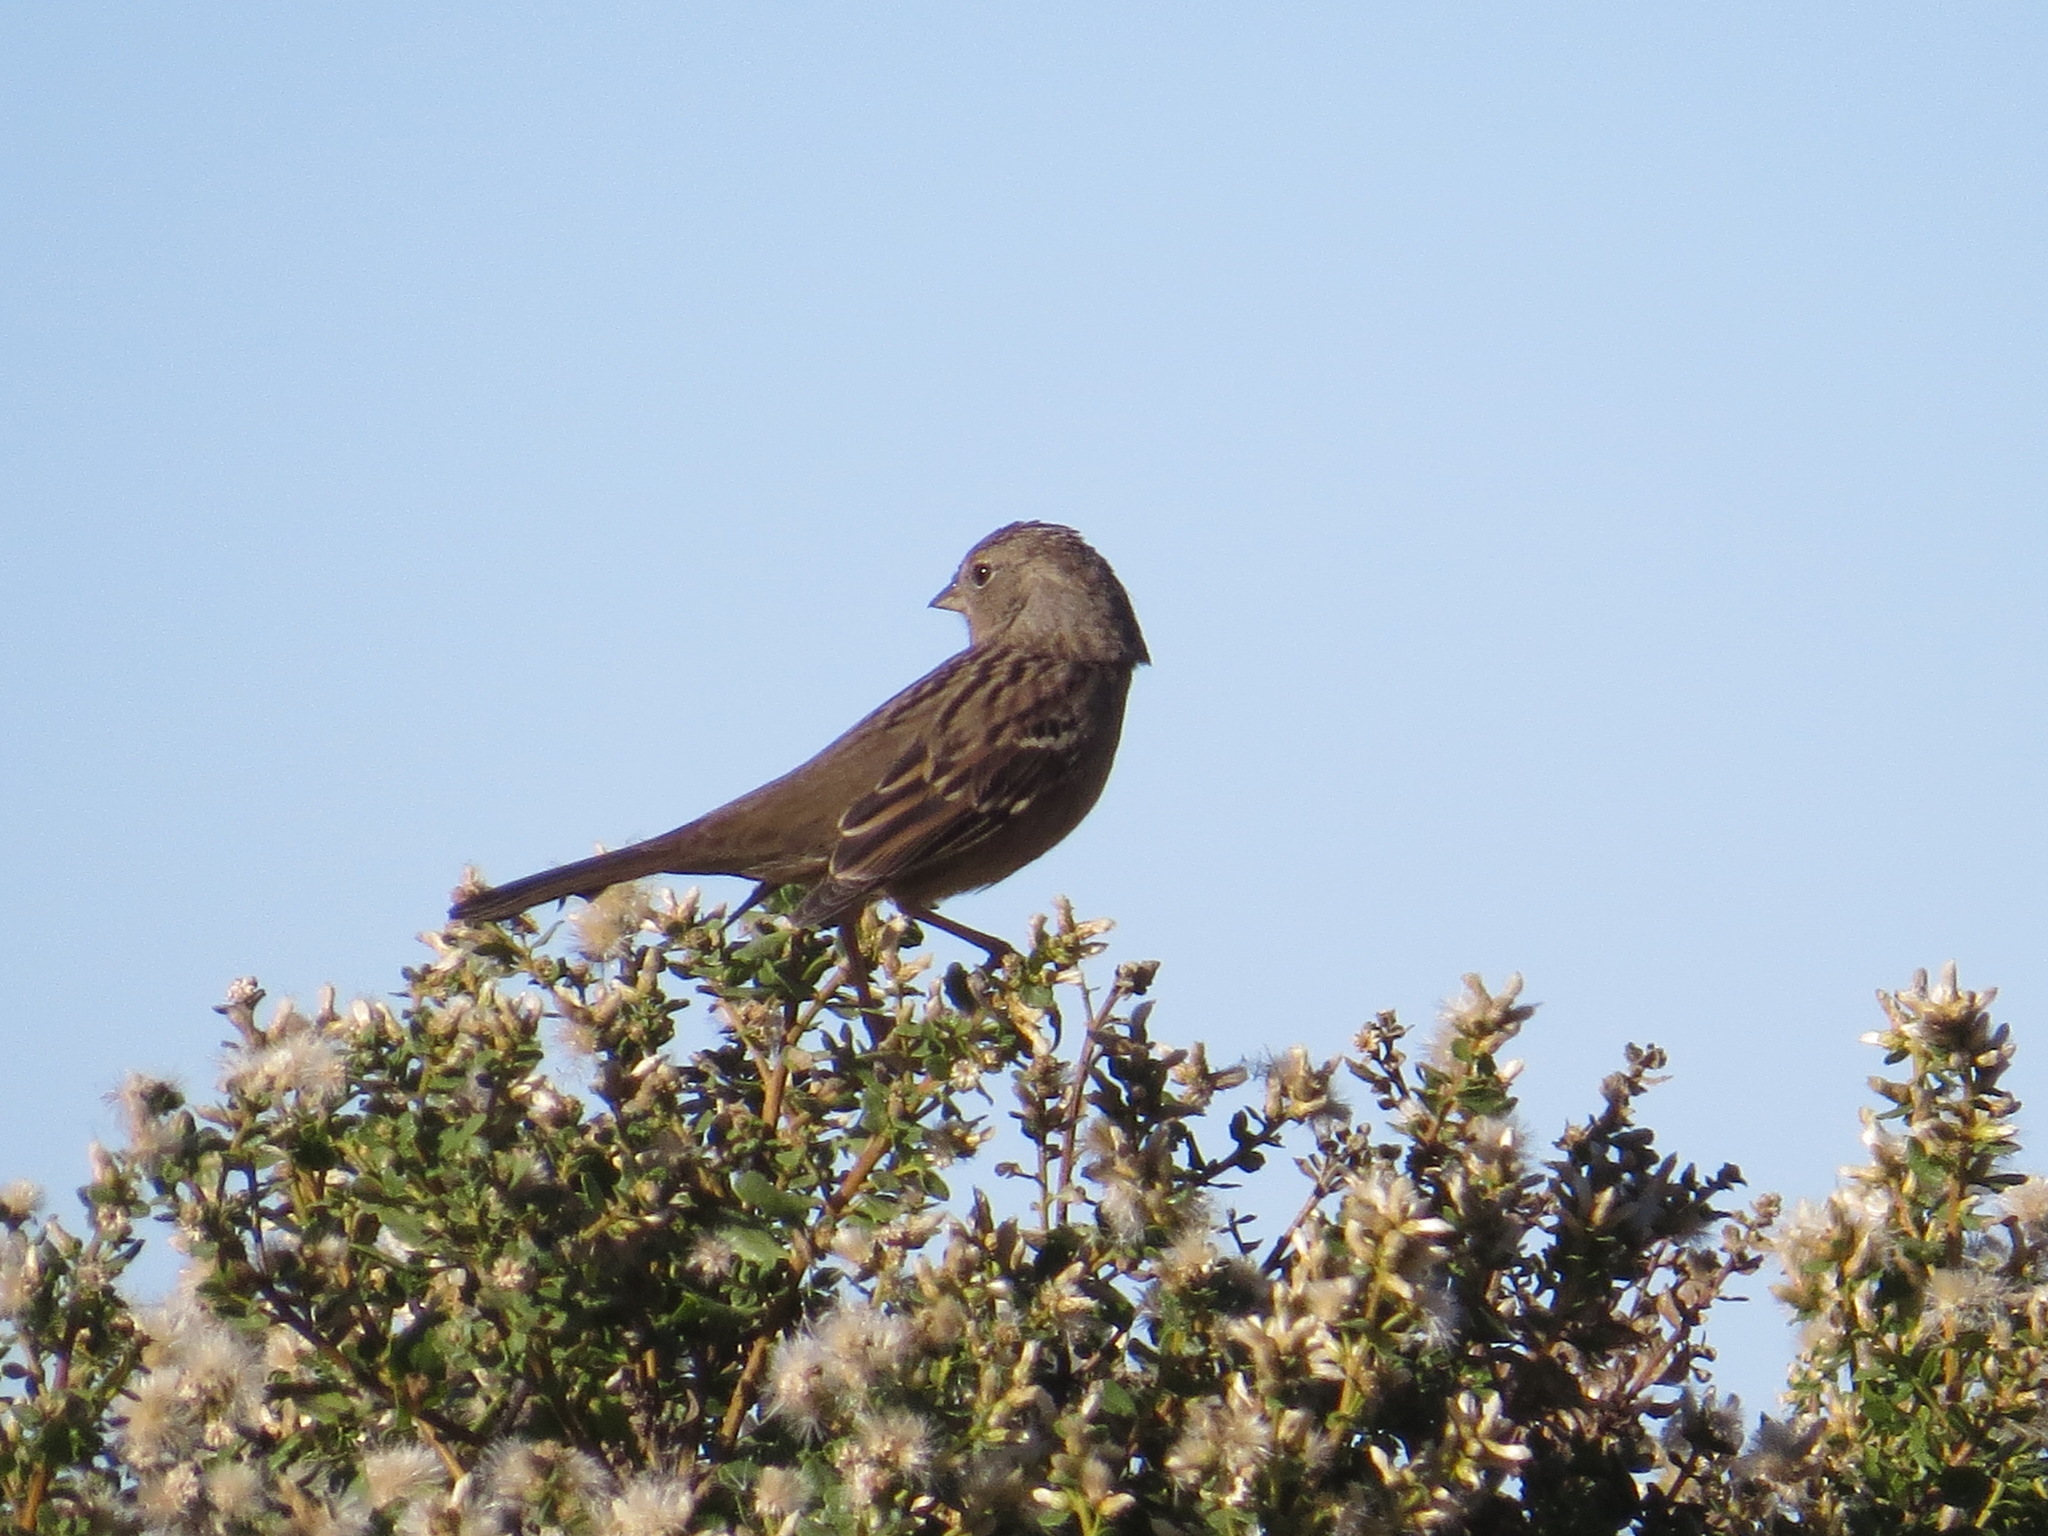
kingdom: Animalia
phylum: Chordata
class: Aves
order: Passeriformes
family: Passerellidae
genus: Zonotrichia
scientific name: Zonotrichia atricapilla
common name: Golden-crowned sparrow
